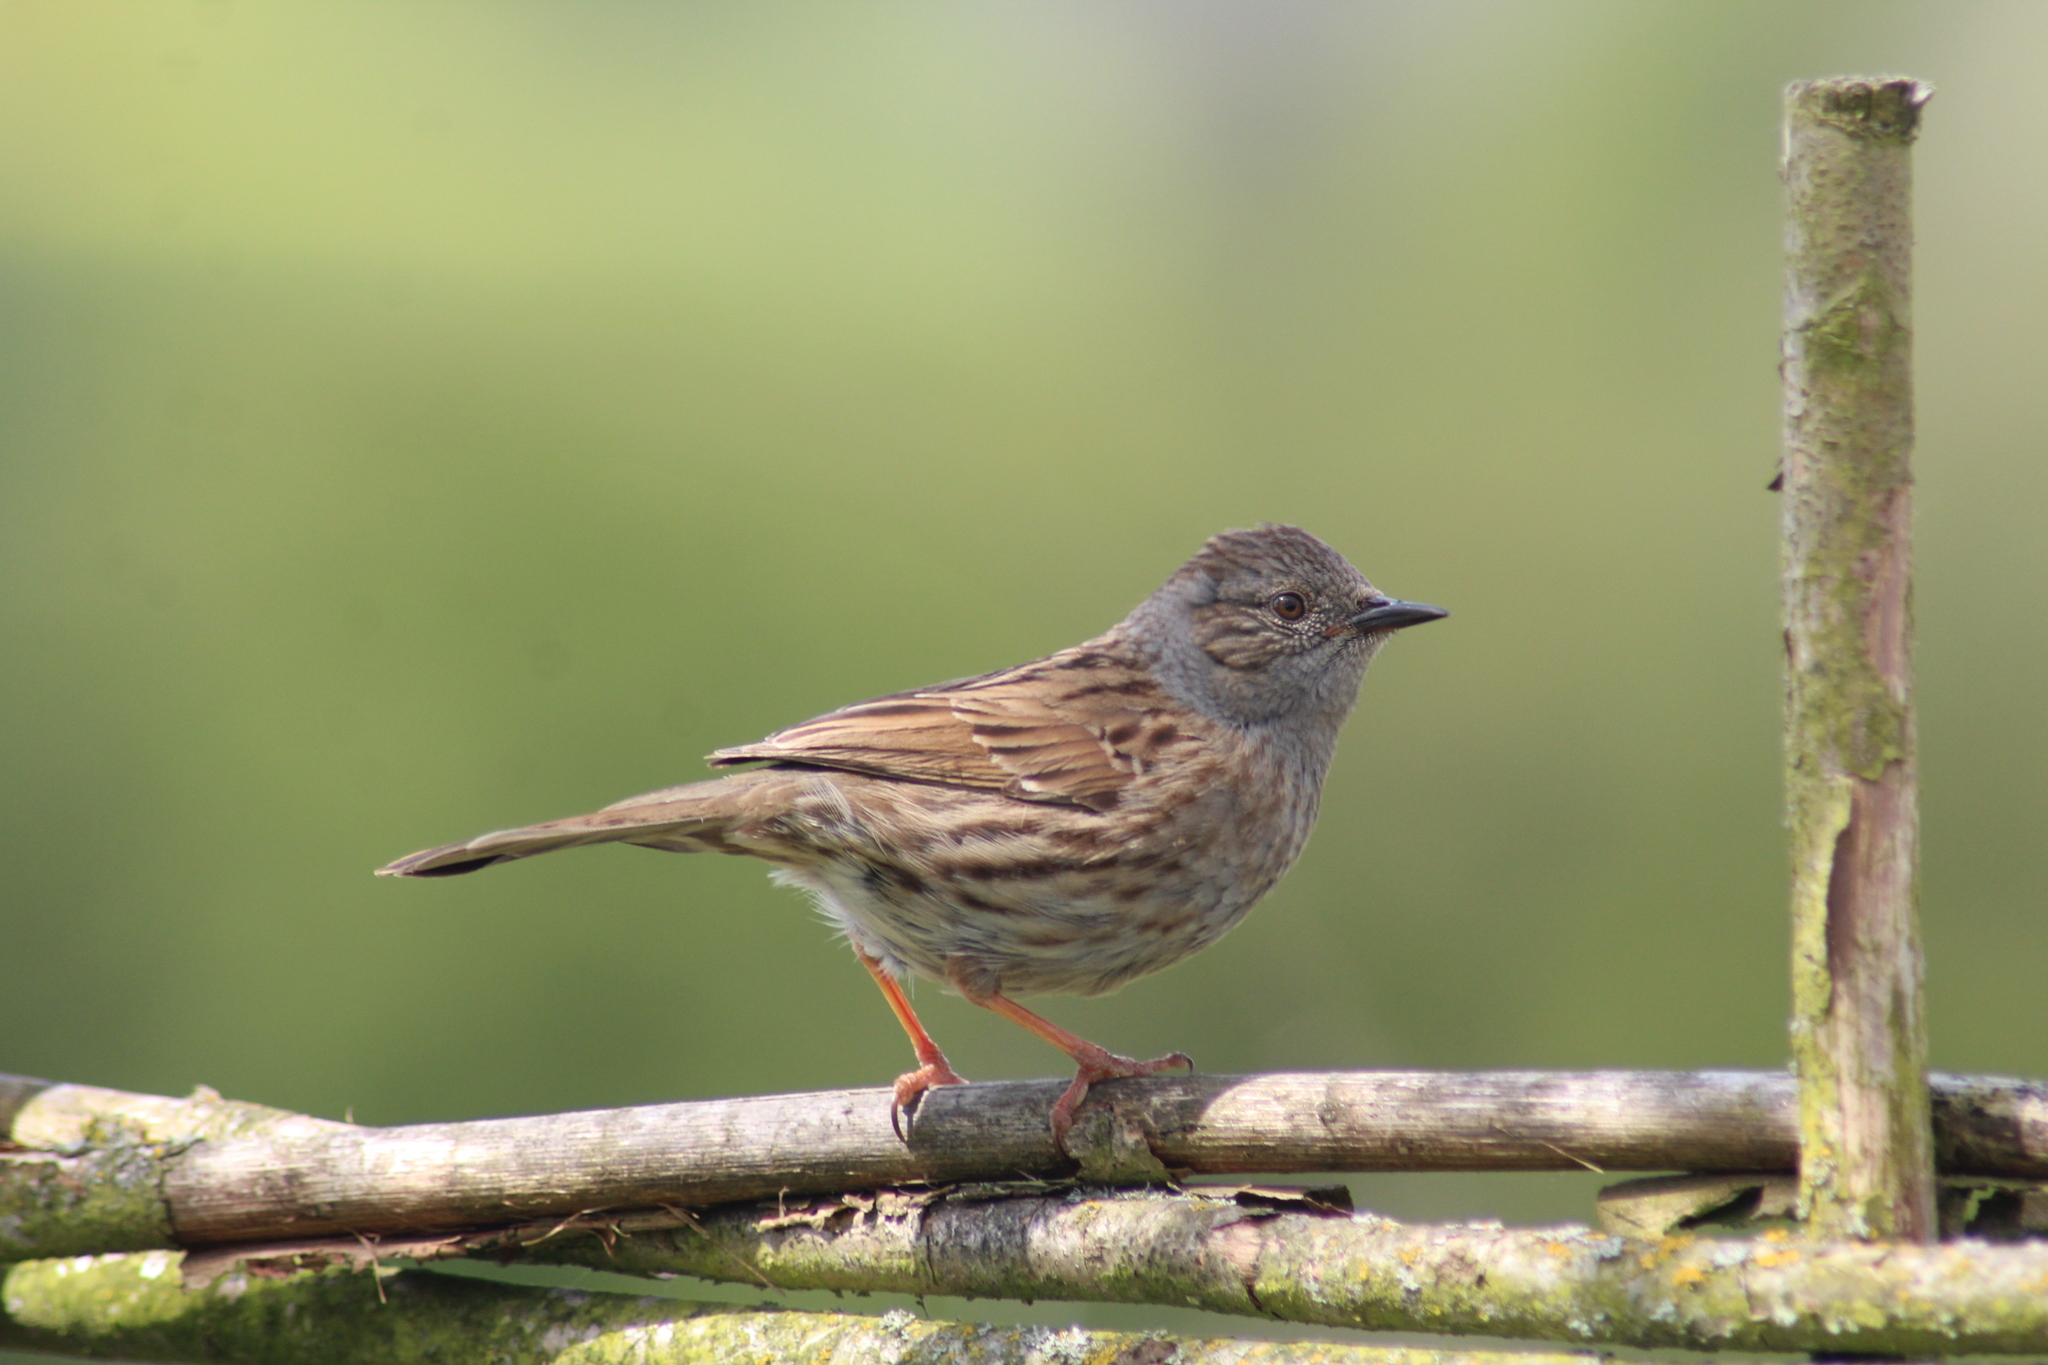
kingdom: Animalia
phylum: Chordata
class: Aves
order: Passeriformes
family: Prunellidae
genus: Prunella
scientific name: Prunella modularis
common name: Dunnock
